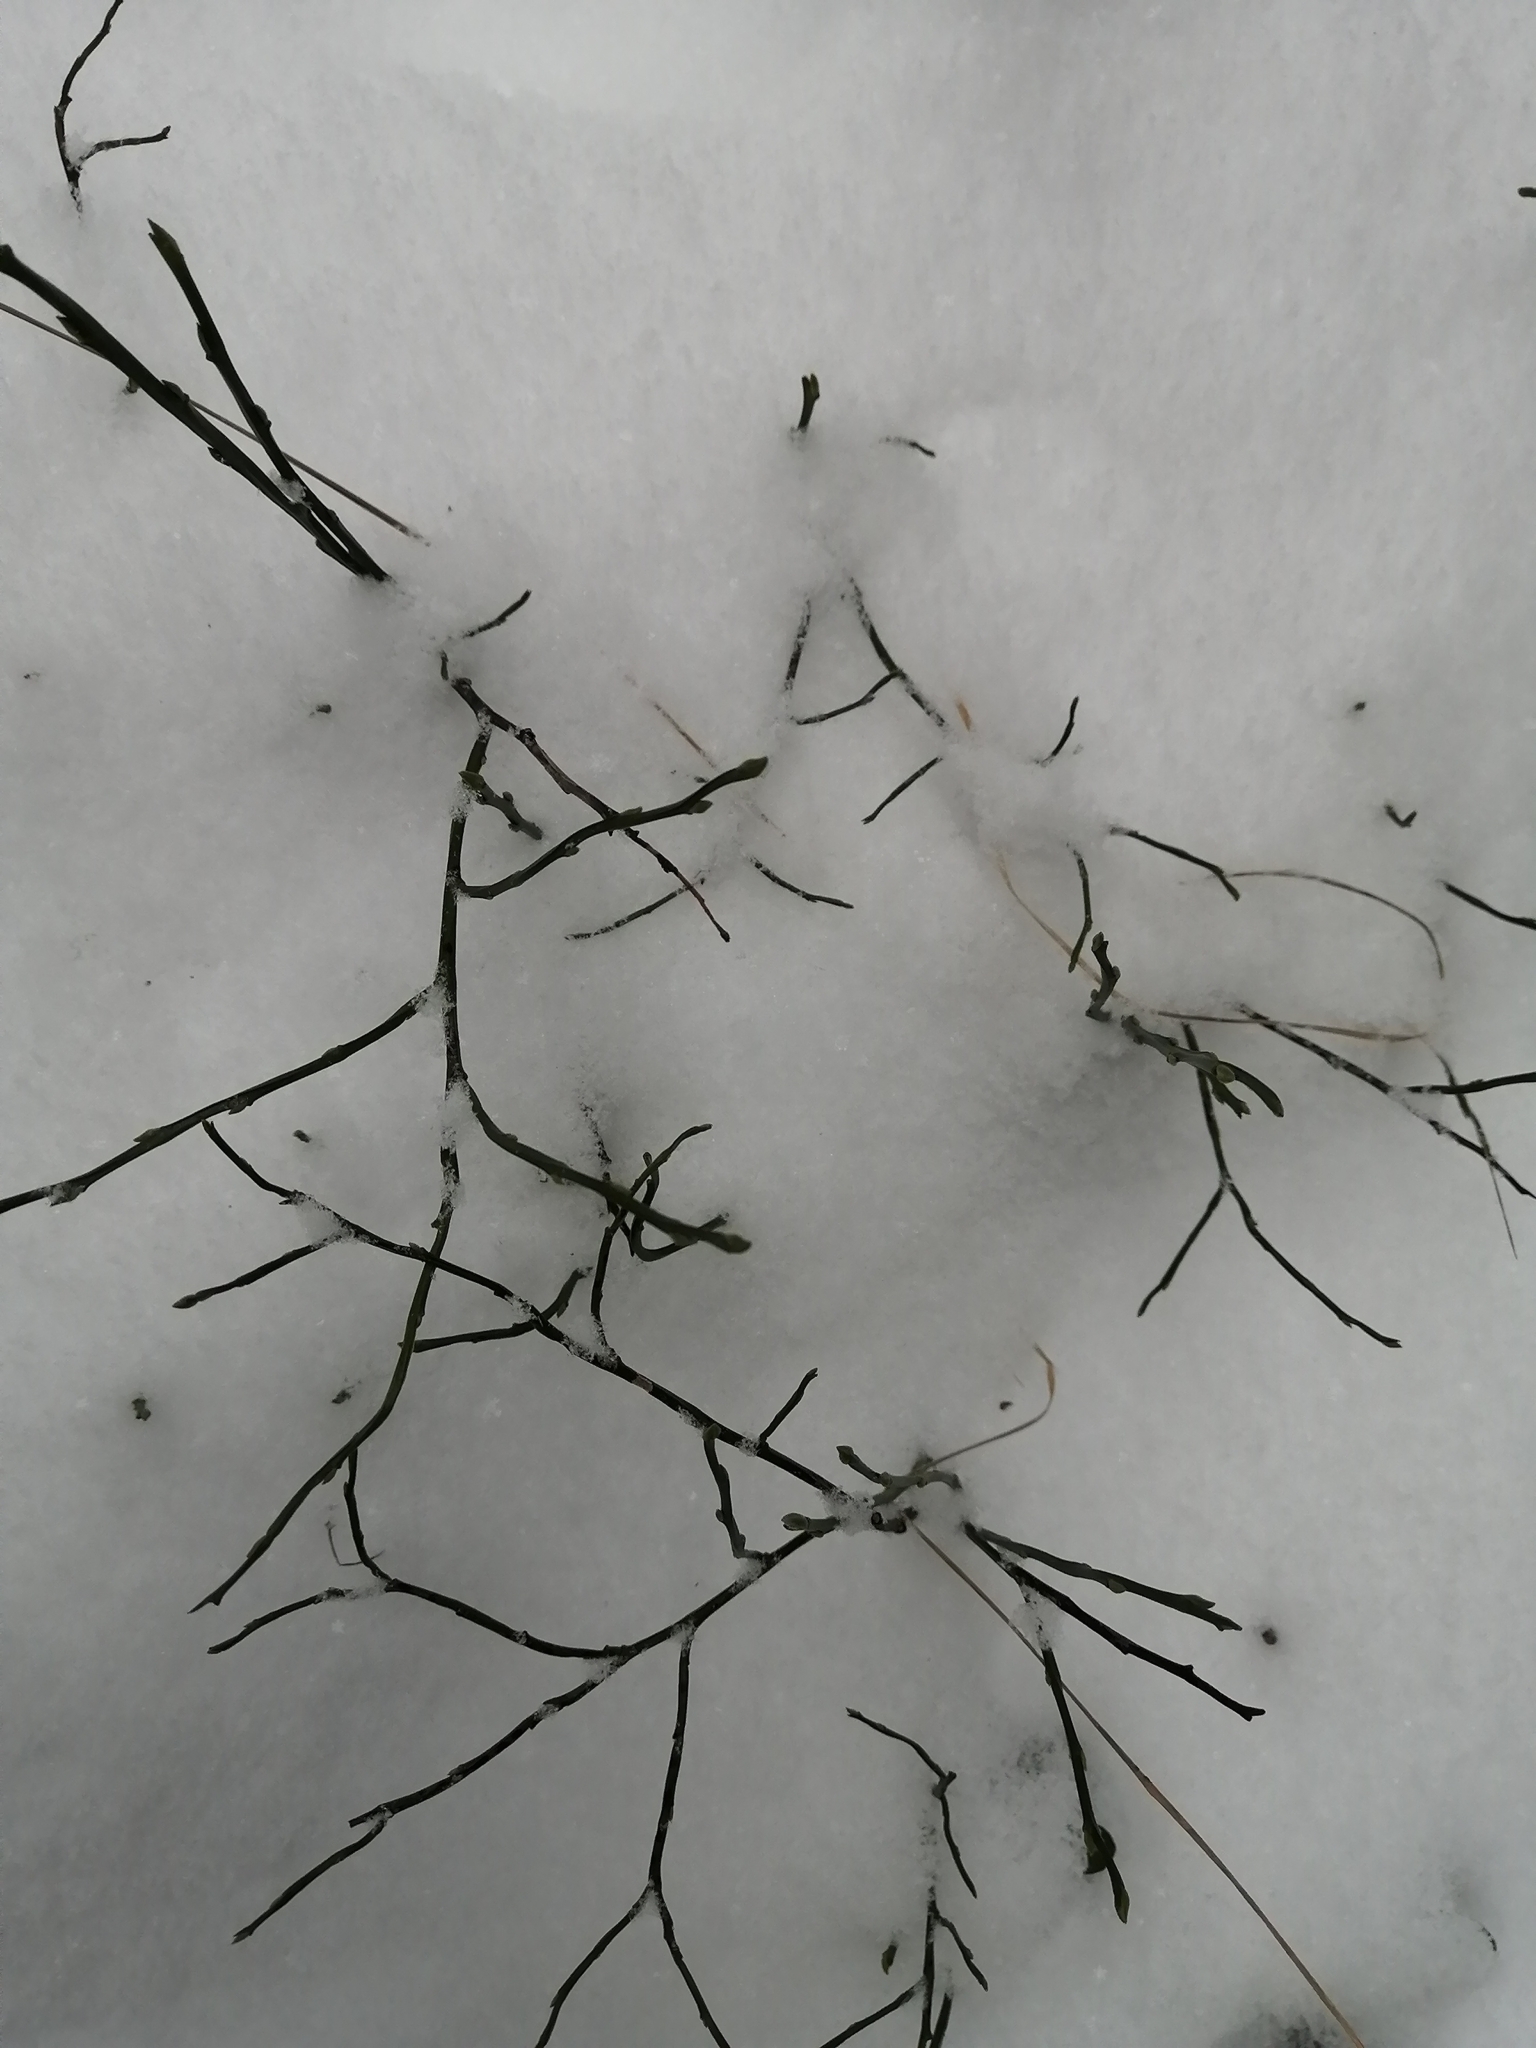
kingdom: Plantae
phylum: Tracheophyta
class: Magnoliopsida
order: Ericales
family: Ericaceae
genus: Vaccinium
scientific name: Vaccinium myrtillus
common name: Bilberry
